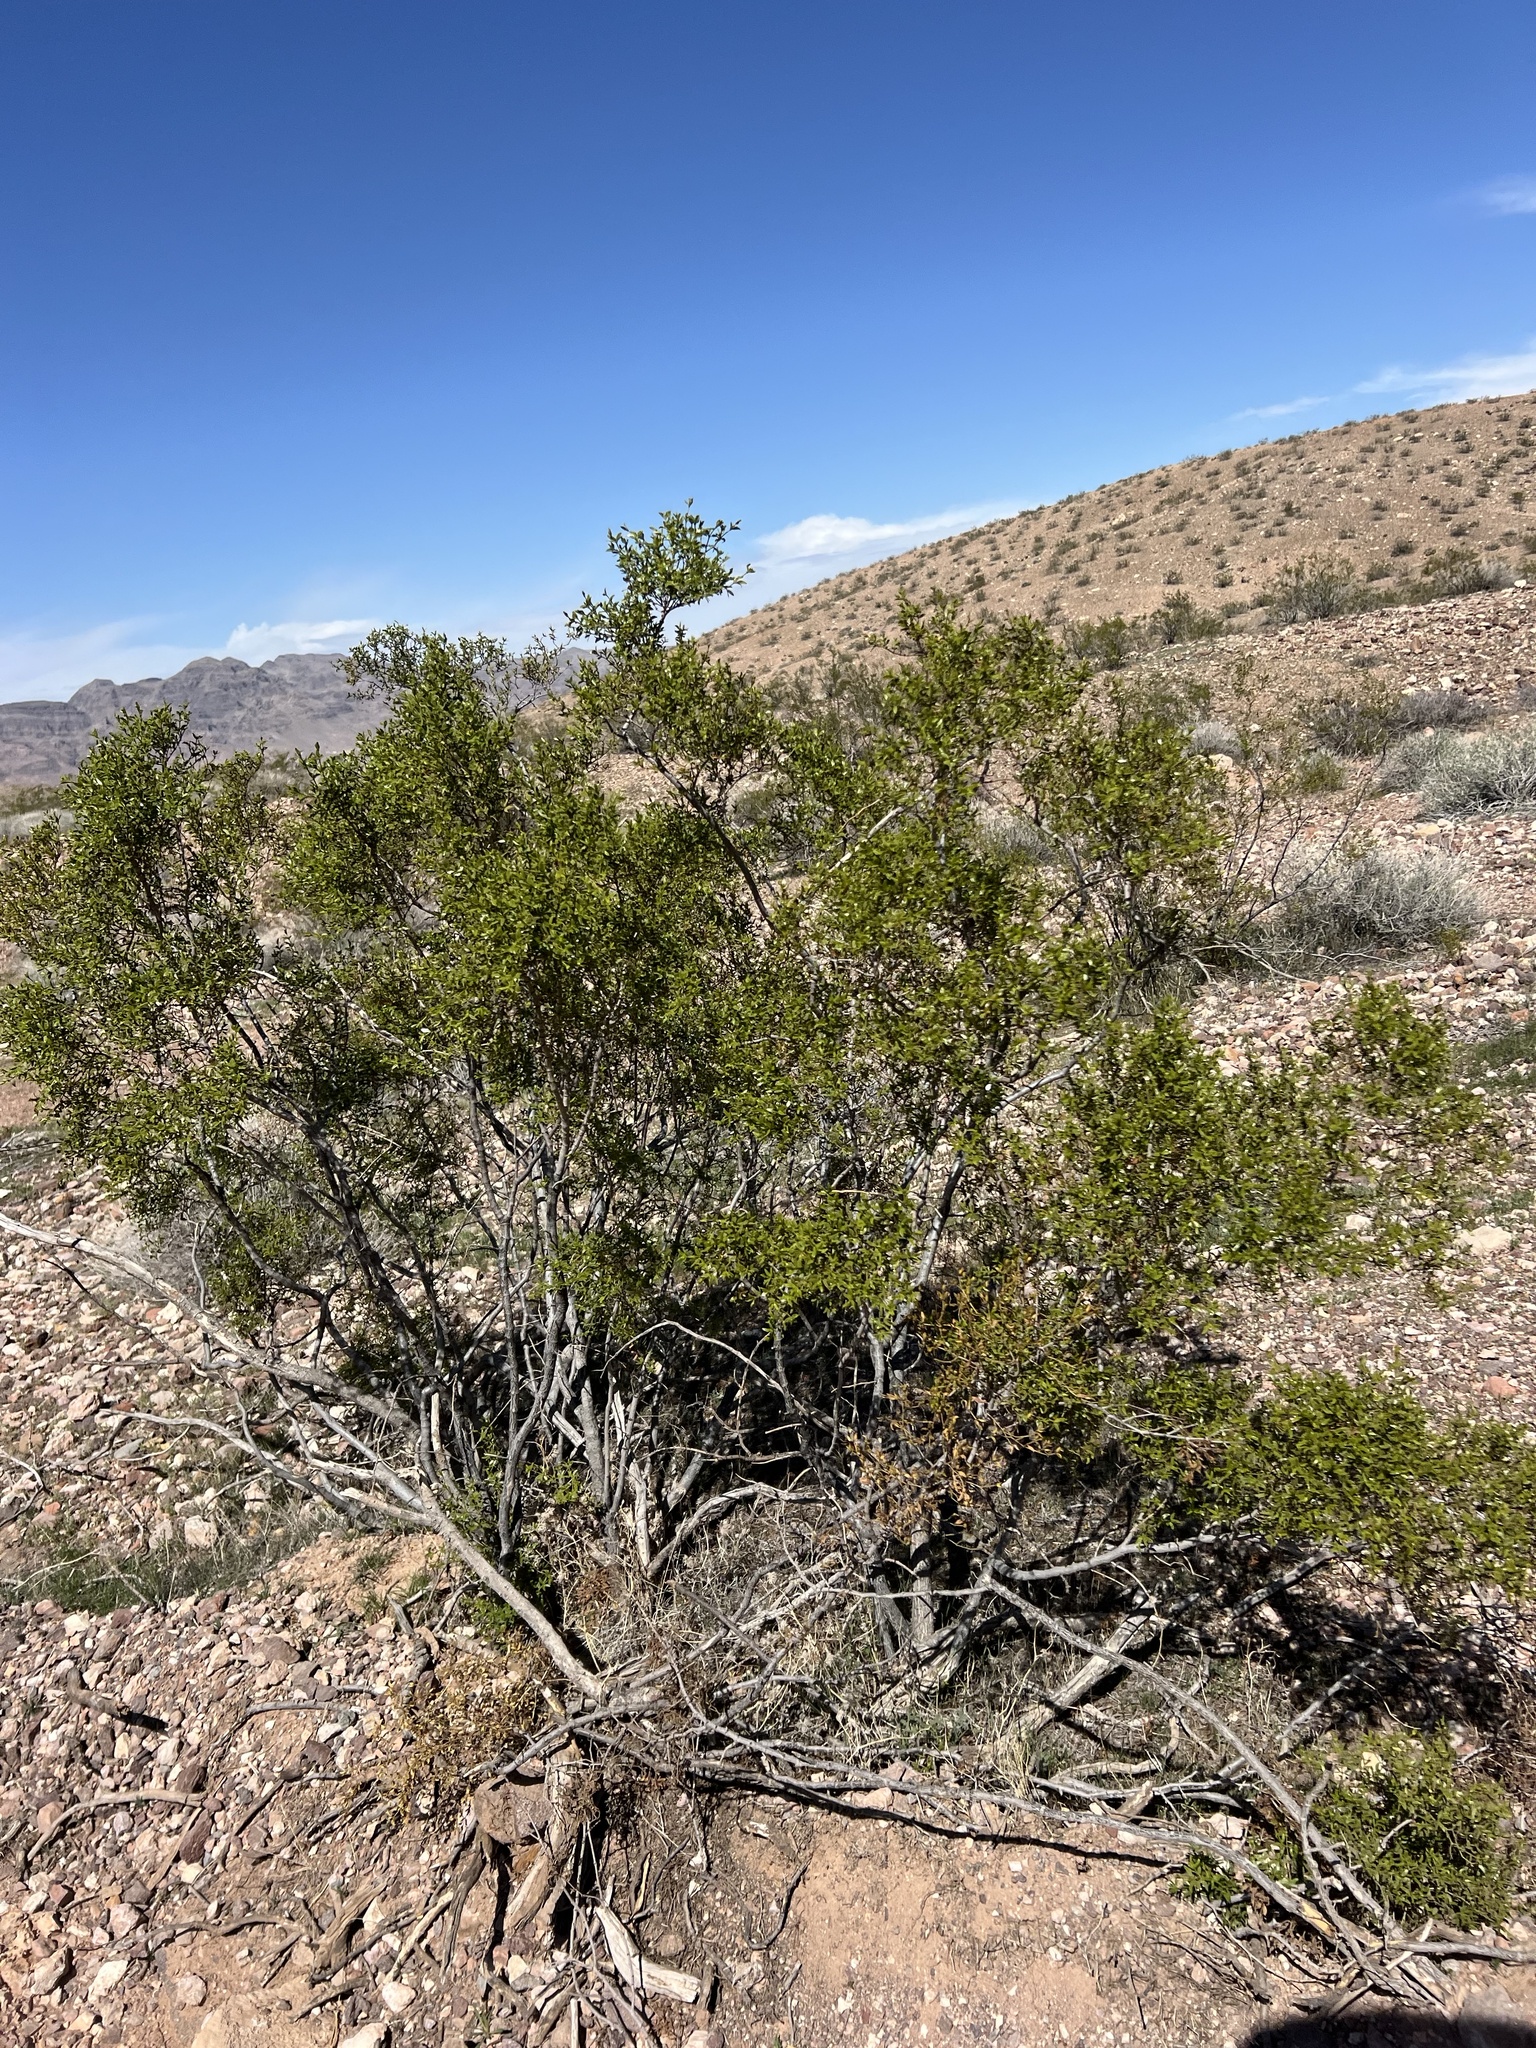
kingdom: Plantae
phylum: Tracheophyta
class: Magnoliopsida
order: Zygophyllales
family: Zygophyllaceae
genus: Larrea
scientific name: Larrea tridentata
